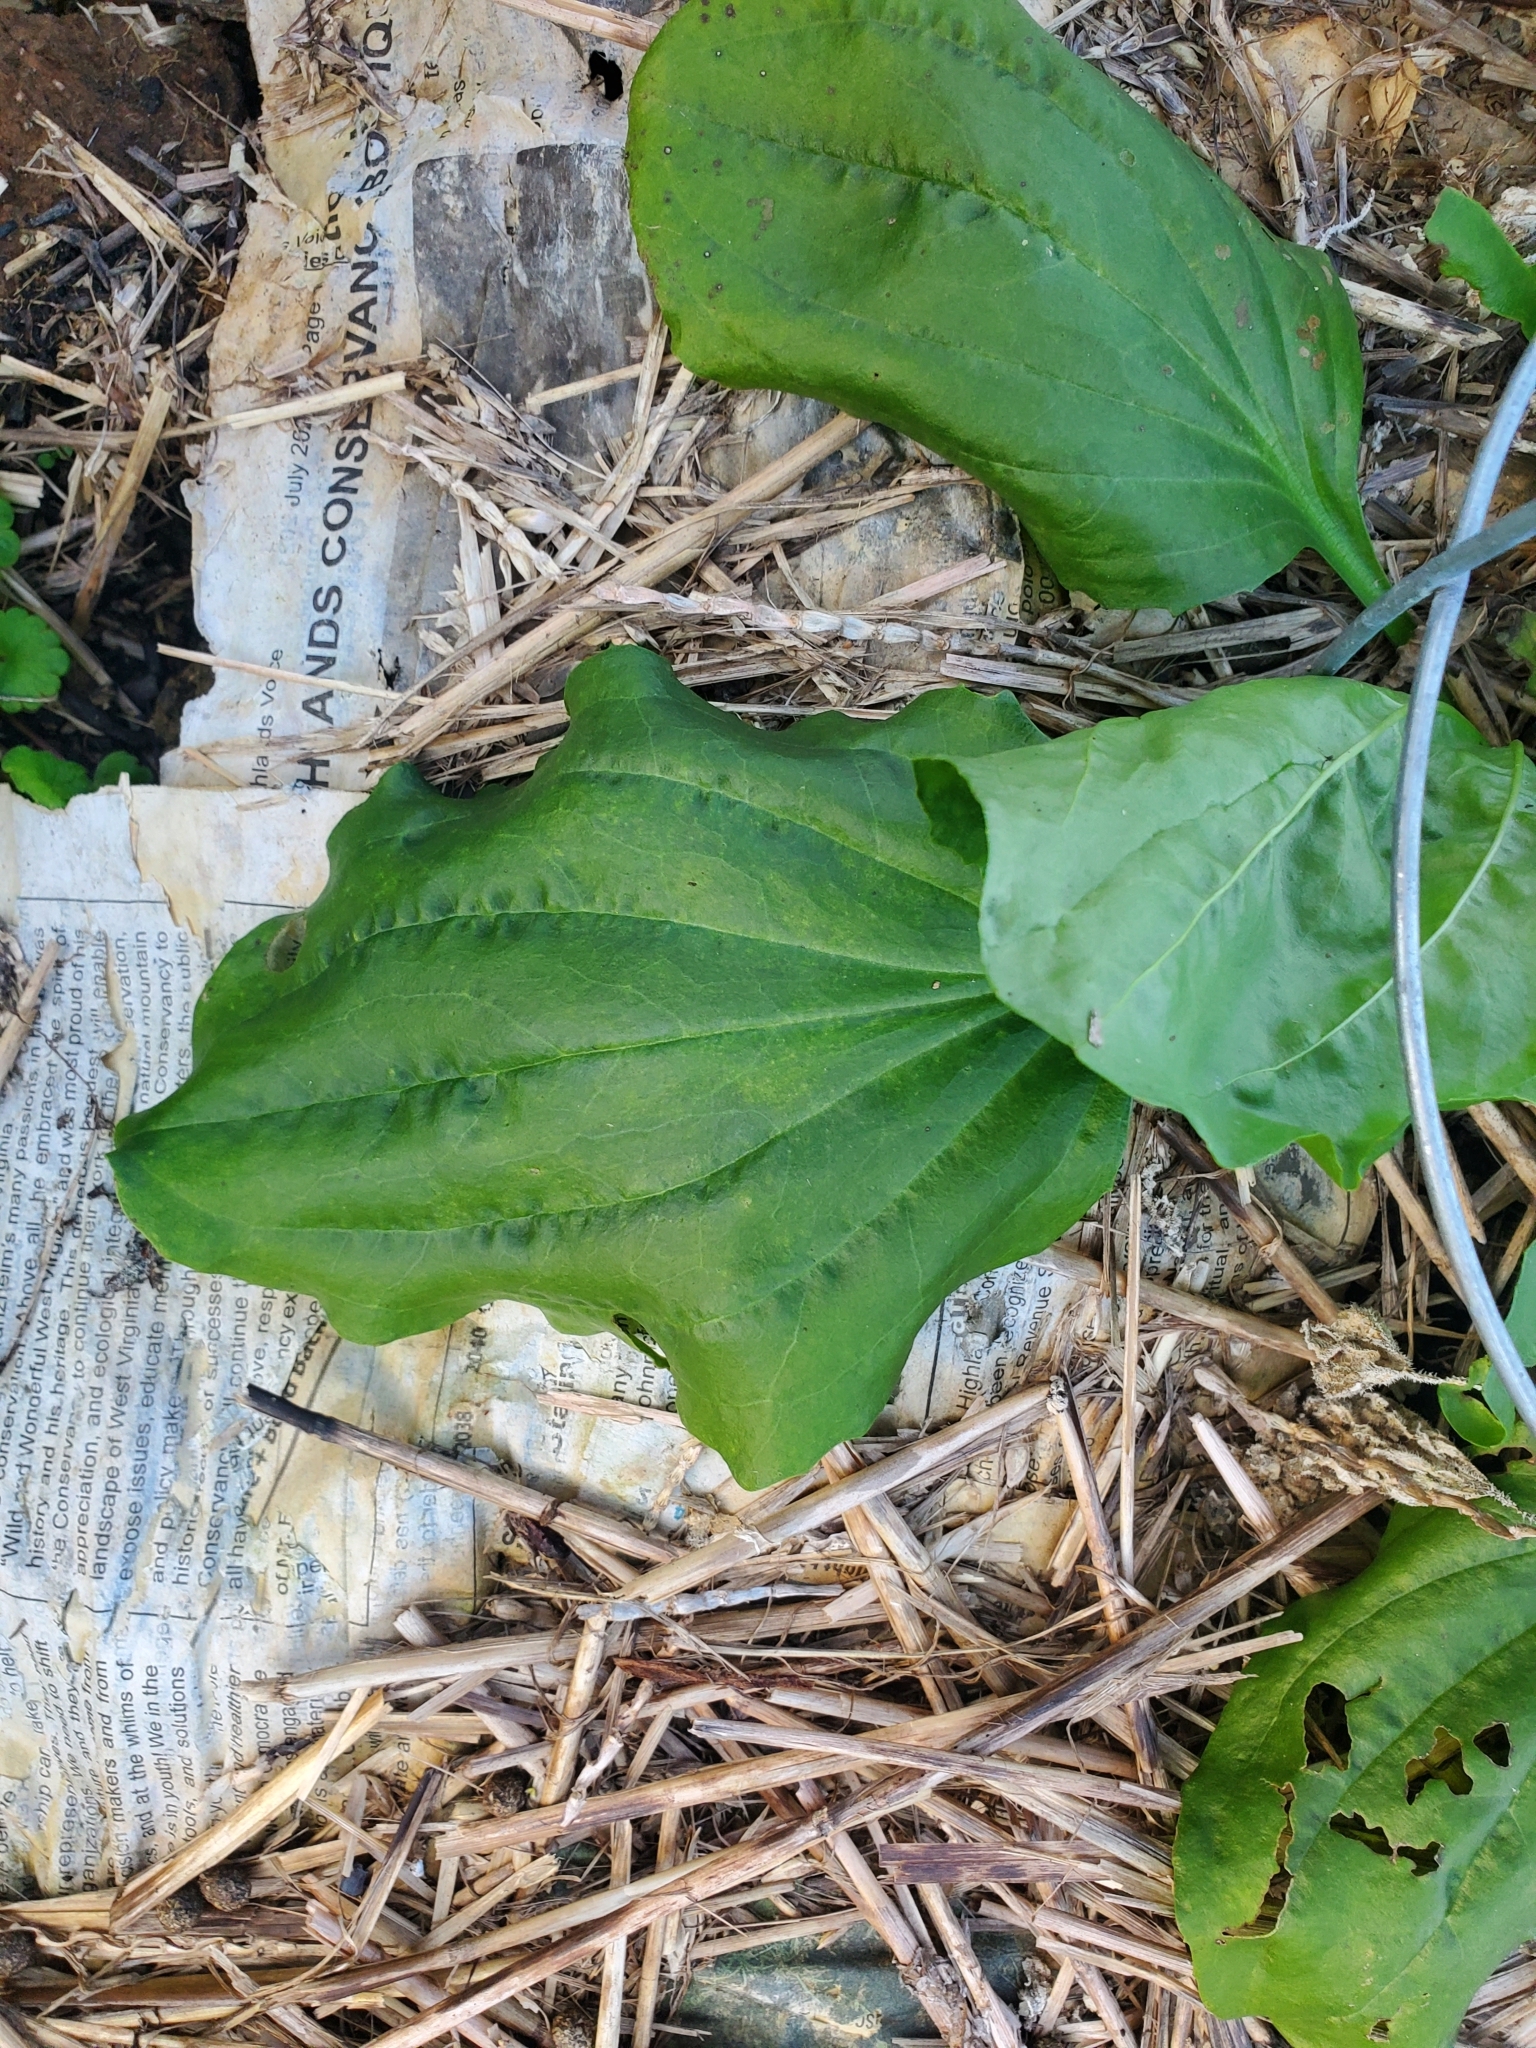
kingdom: Plantae
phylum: Tracheophyta
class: Magnoliopsida
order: Lamiales
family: Plantaginaceae
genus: Plantago
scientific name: Plantago major
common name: Common plantain
